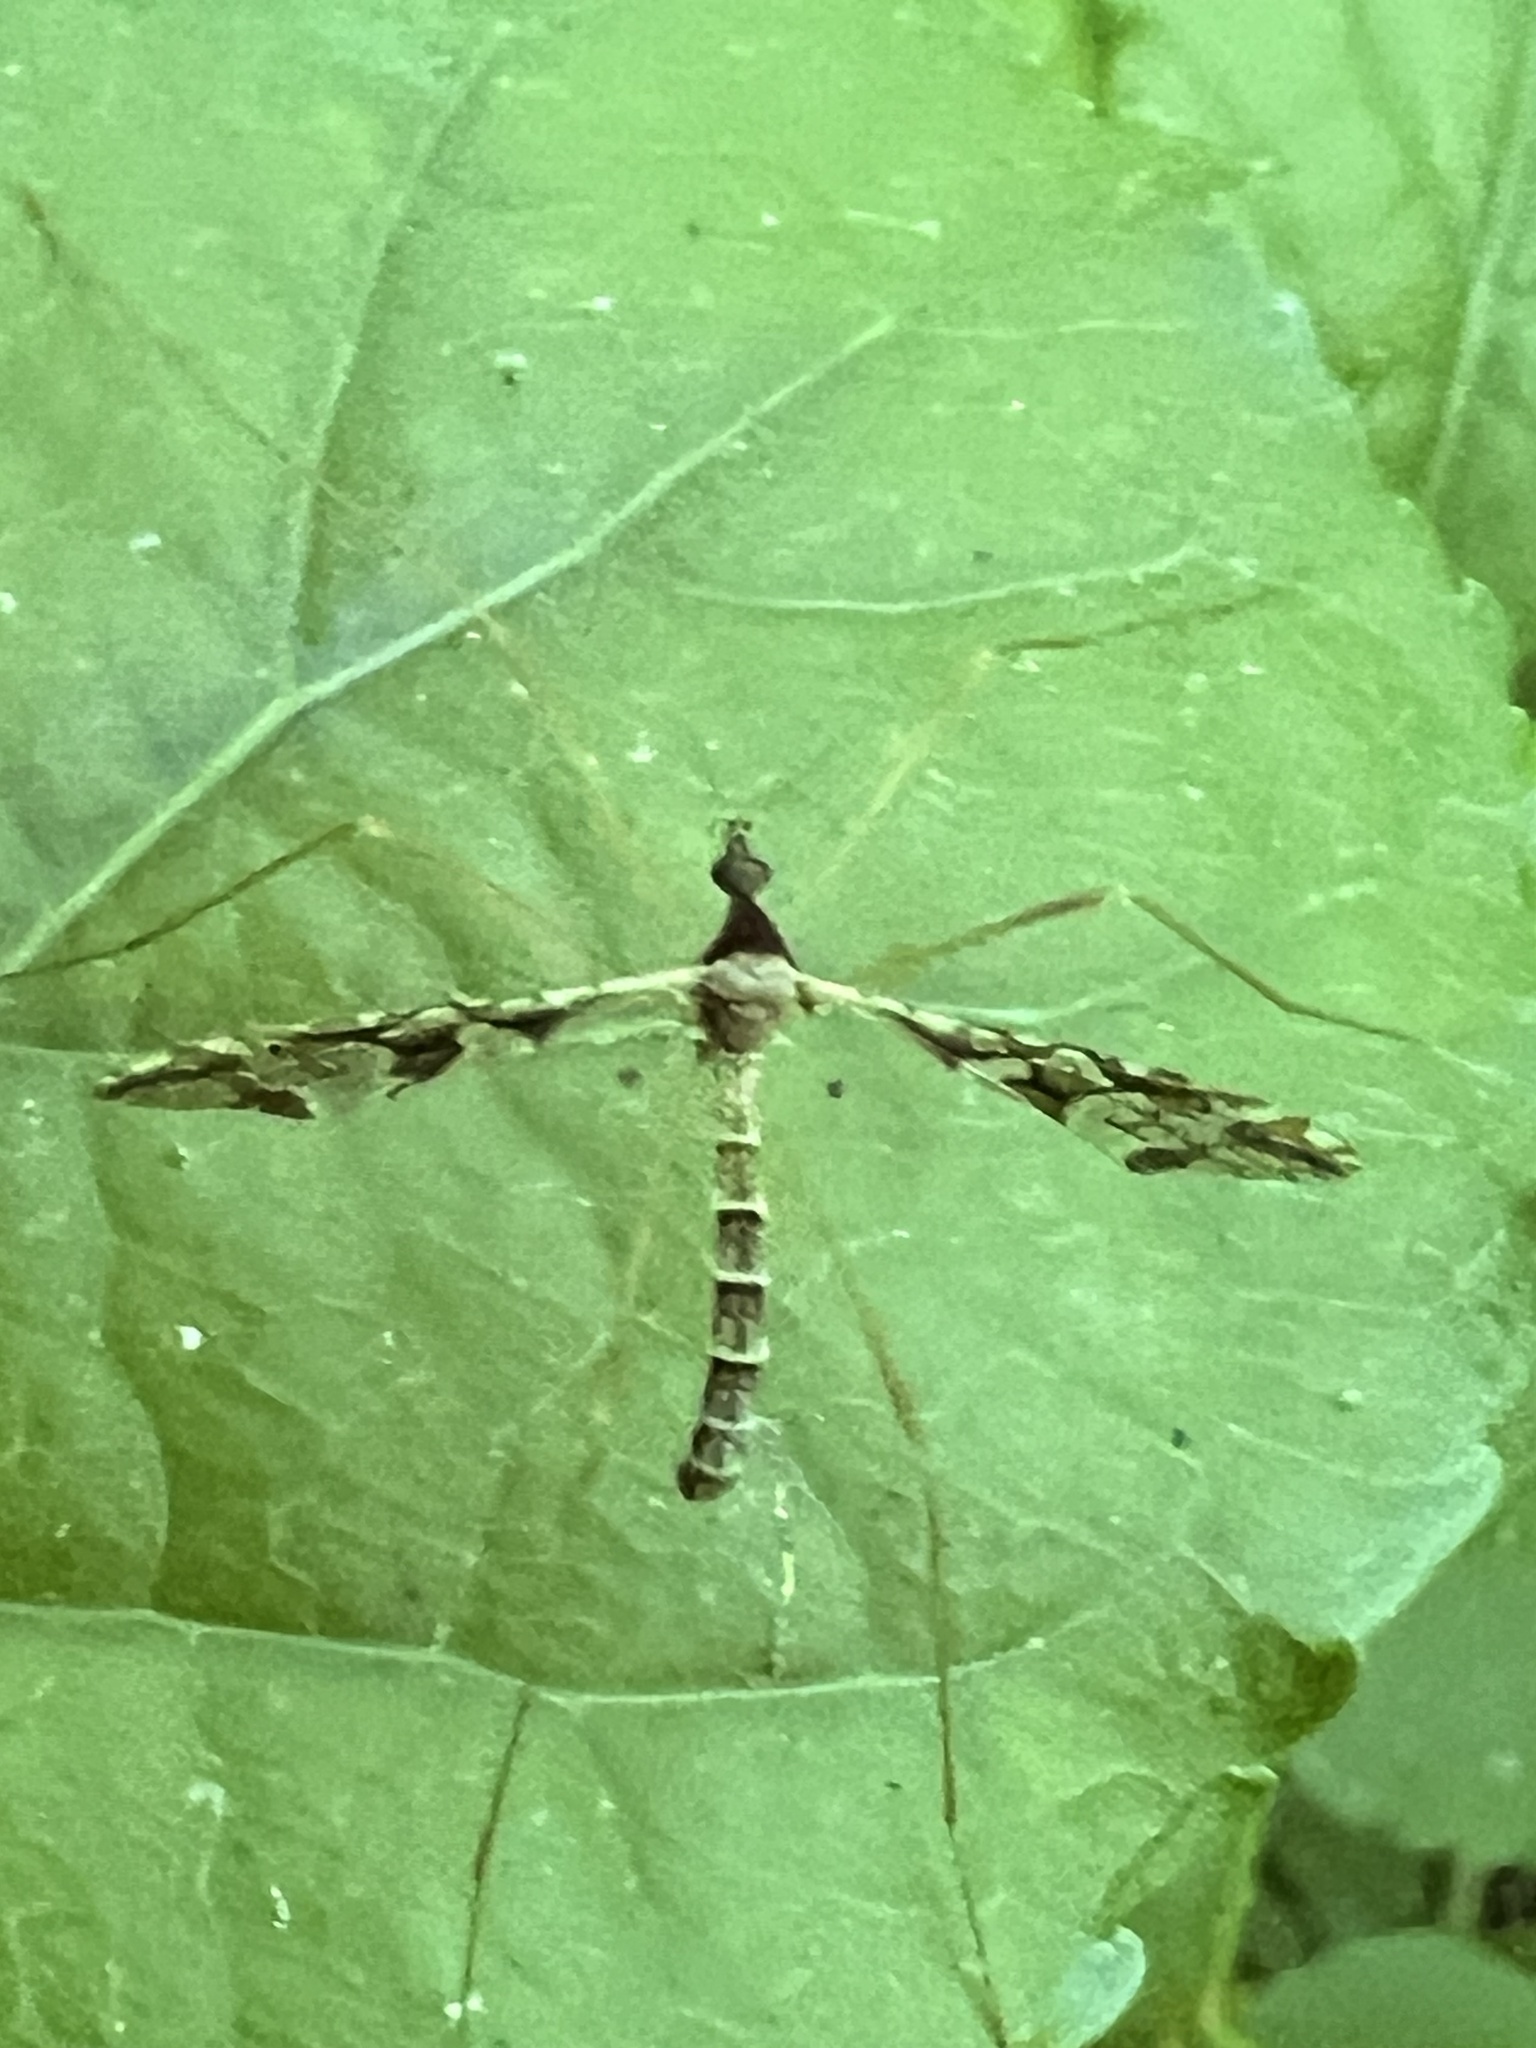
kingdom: Animalia
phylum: Arthropoda
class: Insecta
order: Diptera
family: Limoniidae
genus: Epiphragma
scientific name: Epiphragma solatrix
